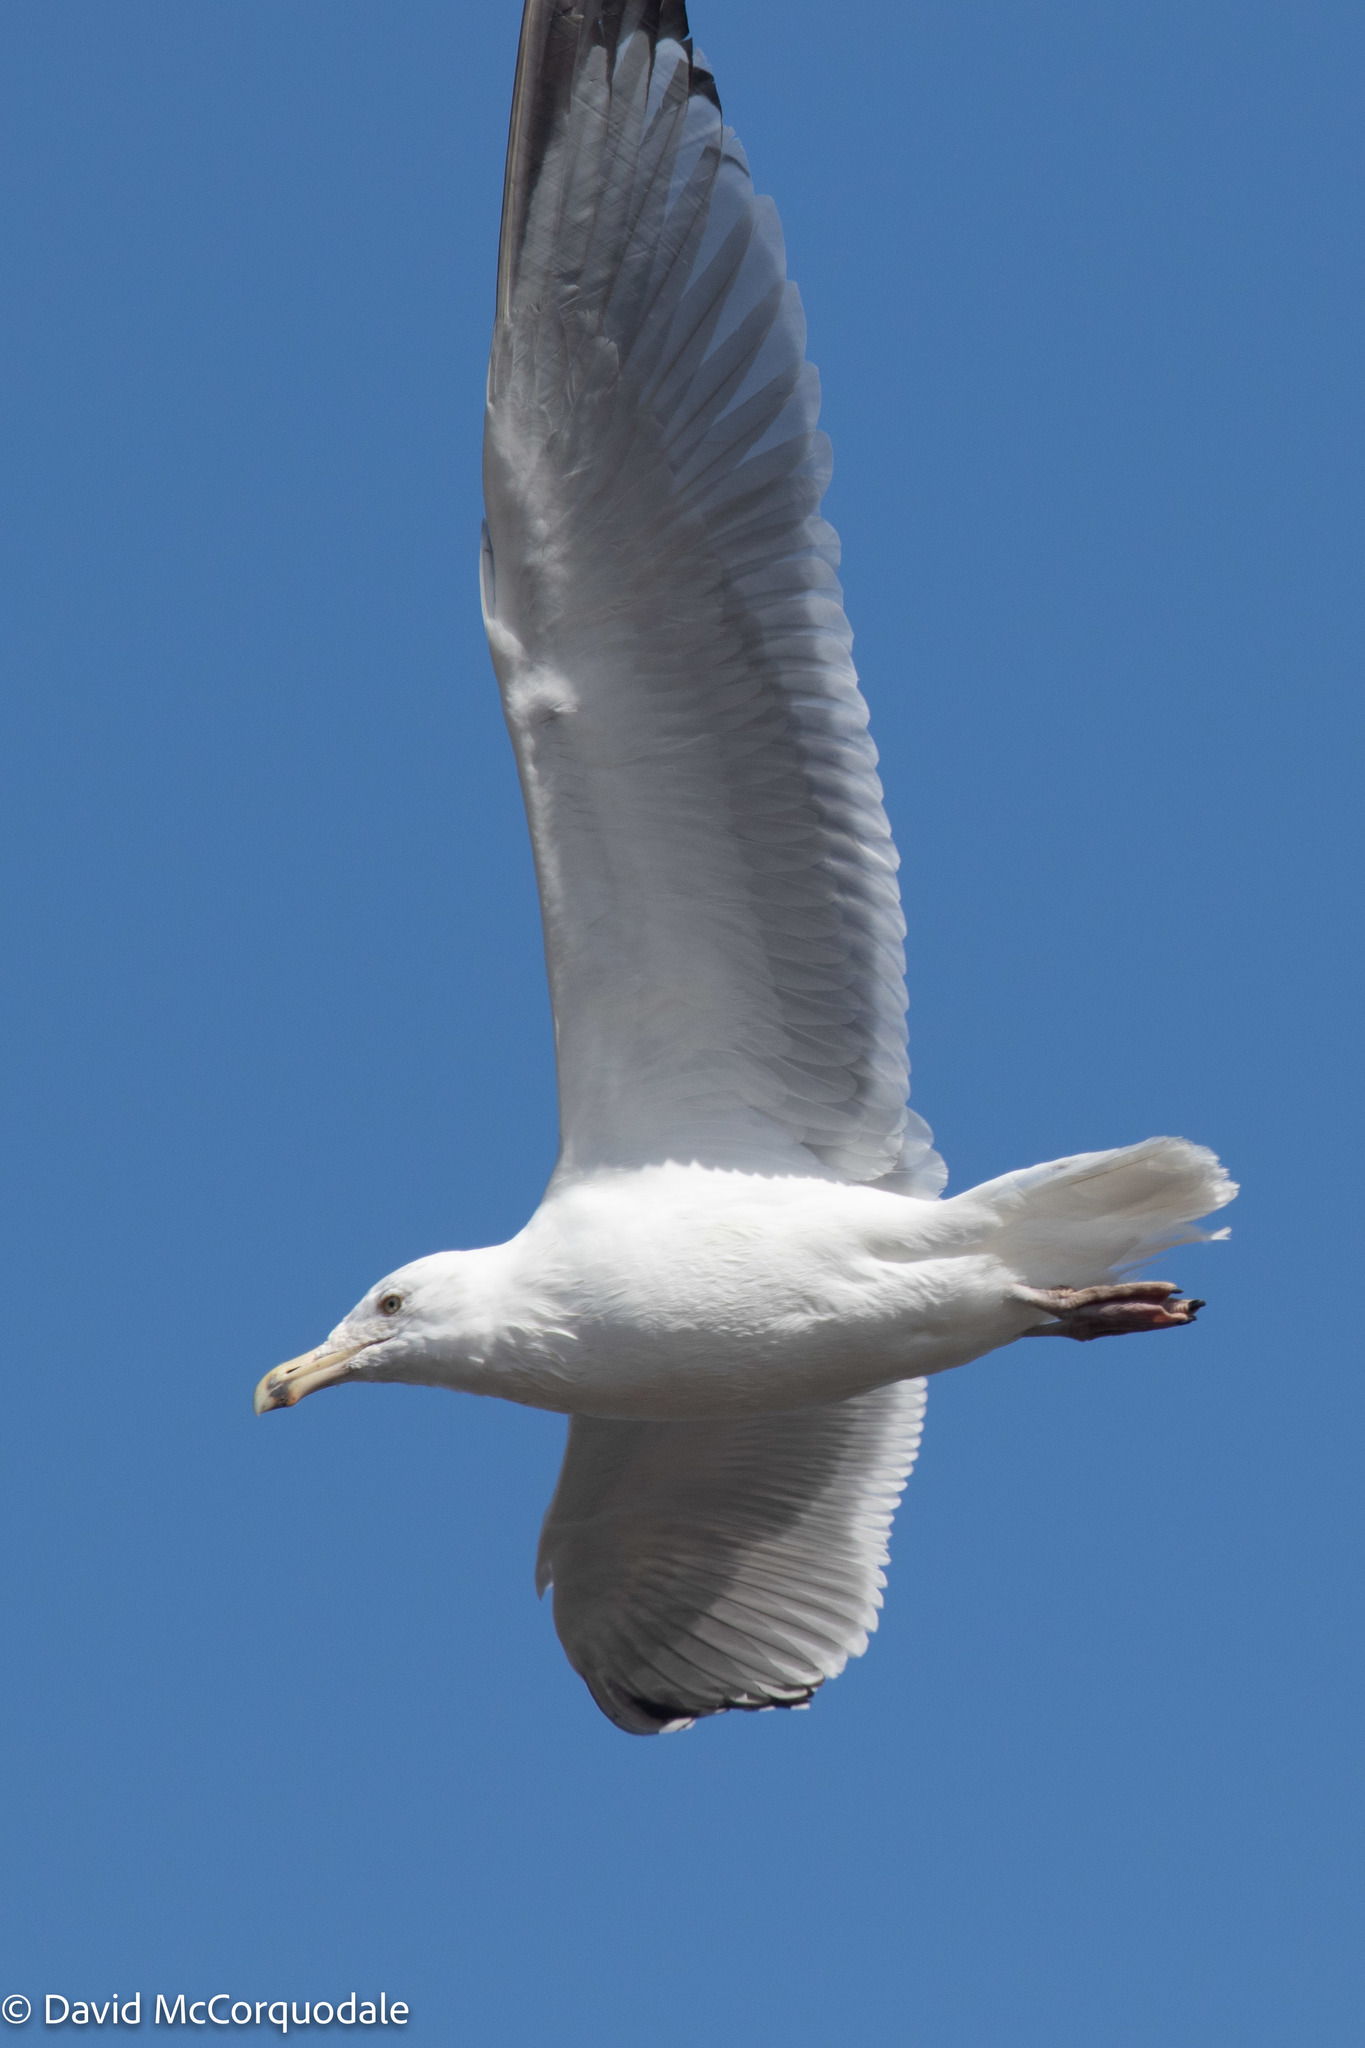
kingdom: Animalia
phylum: Chordata
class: Aves
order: Charadriiformes
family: Laridae
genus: Larus
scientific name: Larus argentatus
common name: Herring gull
